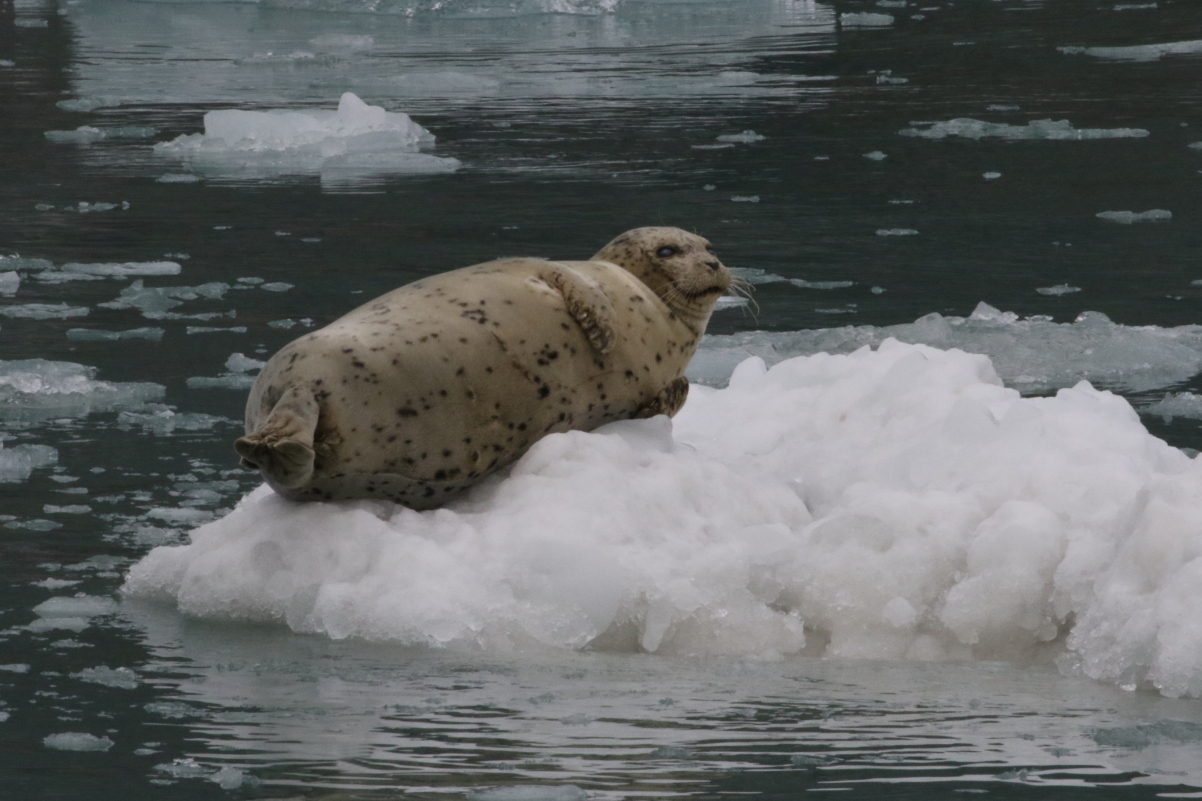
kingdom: Animalia
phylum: Chordata
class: Mammalia
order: Carnivora
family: Phocidae
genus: Phoca
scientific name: Phoca vitulina
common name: Harbor seal
